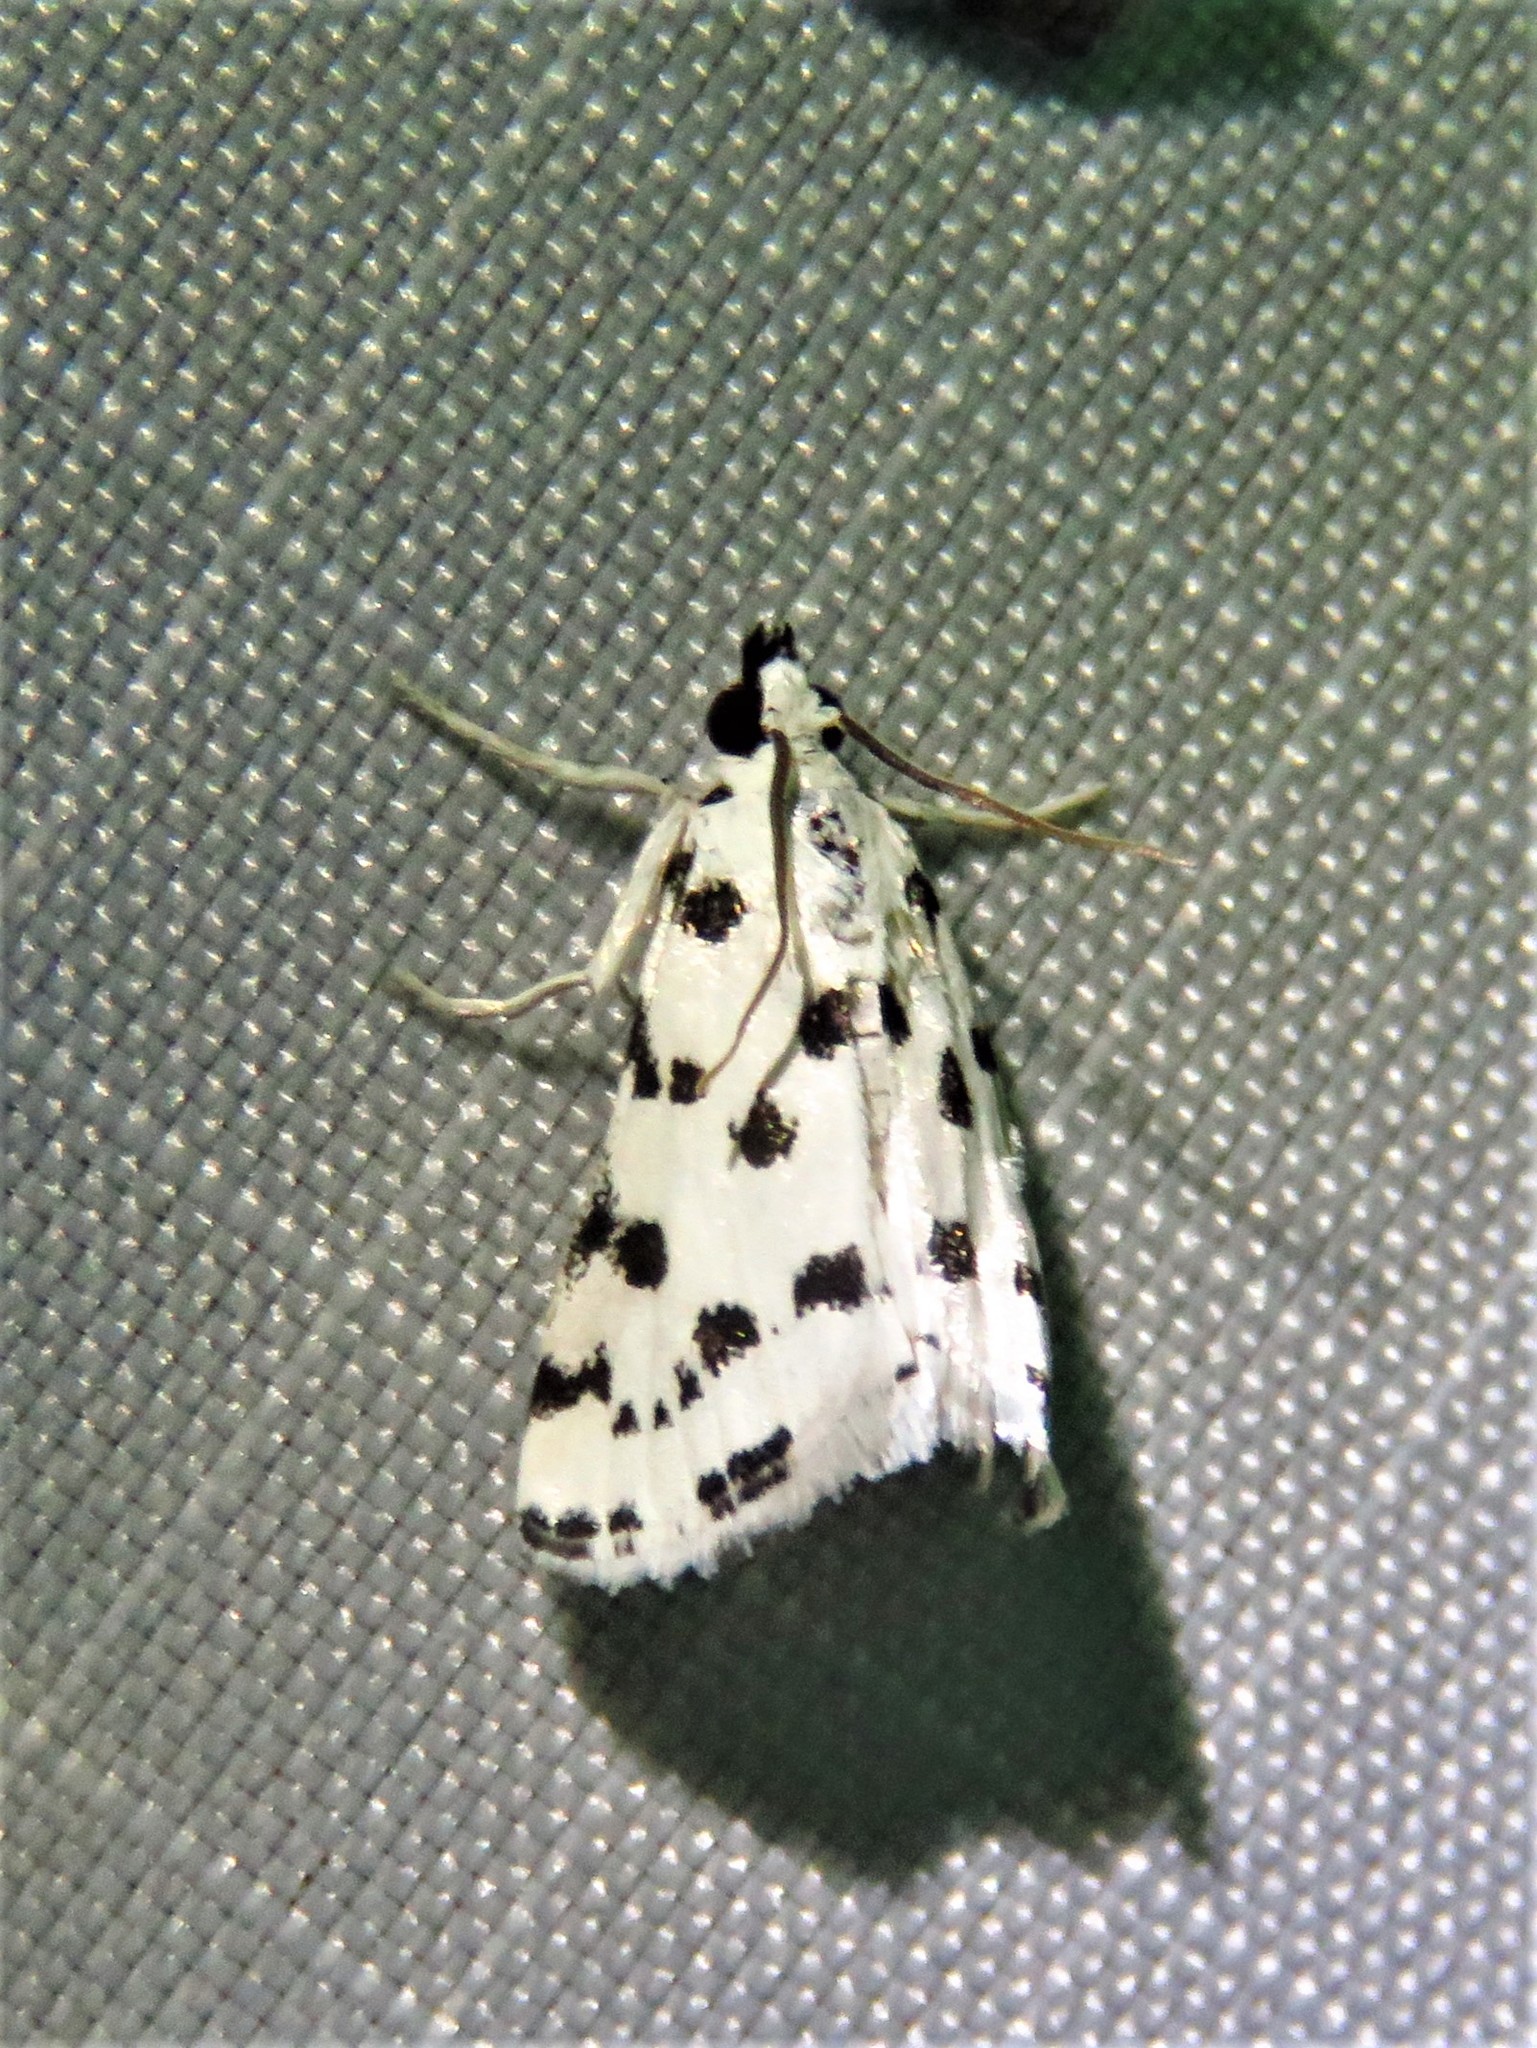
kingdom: Animalia
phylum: Arthropoda
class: Insecta
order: Lepidoptera
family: Crambidae
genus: Eustixia
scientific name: Eustixia pupula
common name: American cabbage pearl
